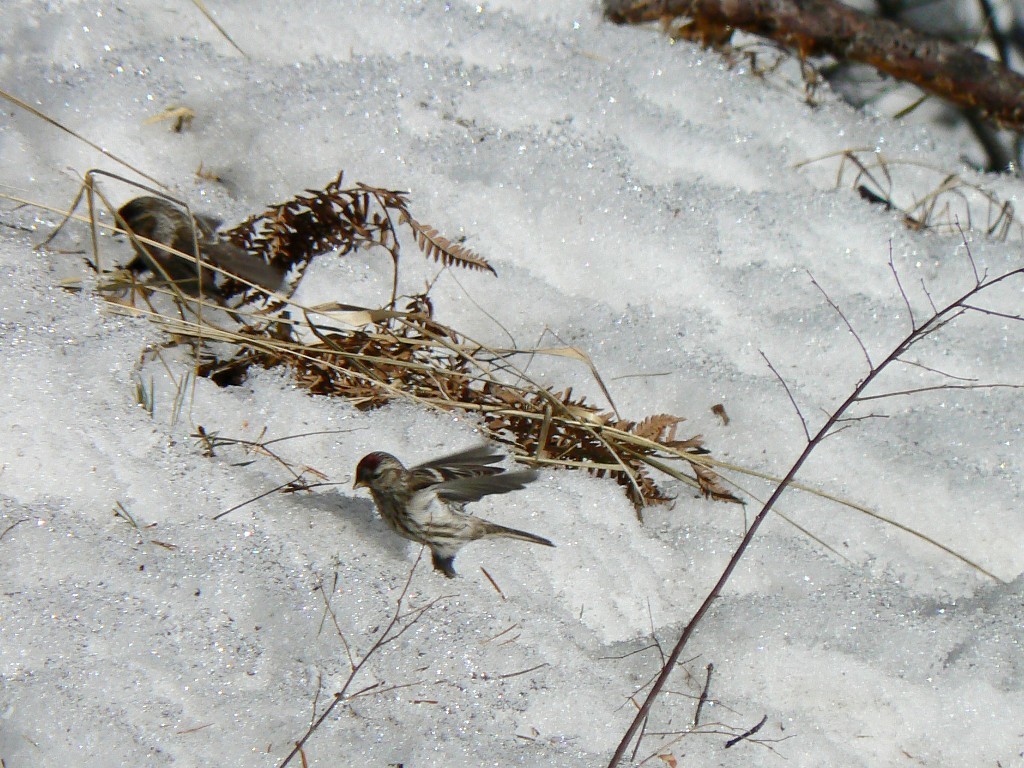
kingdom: Animalia
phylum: Chordata
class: Aves
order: Passeriformes
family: Fringillidae
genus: Acanthis
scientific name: Acanthis flammea
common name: Common redpoll
